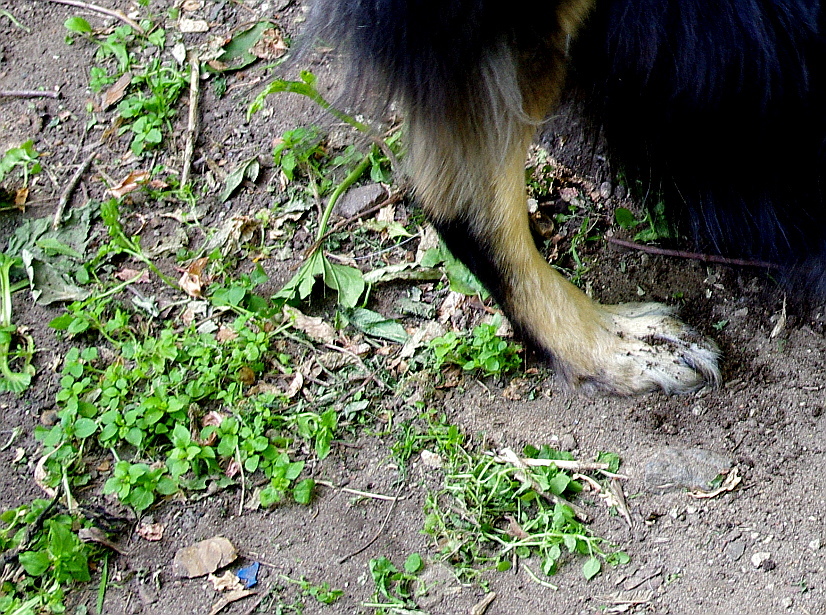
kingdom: Plantae
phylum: Tracheophyta
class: Magnoliopsida
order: Caryophyllales
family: Caryophyllaceae
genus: Stellaria
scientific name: Stellaria media
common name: Common chickweed
